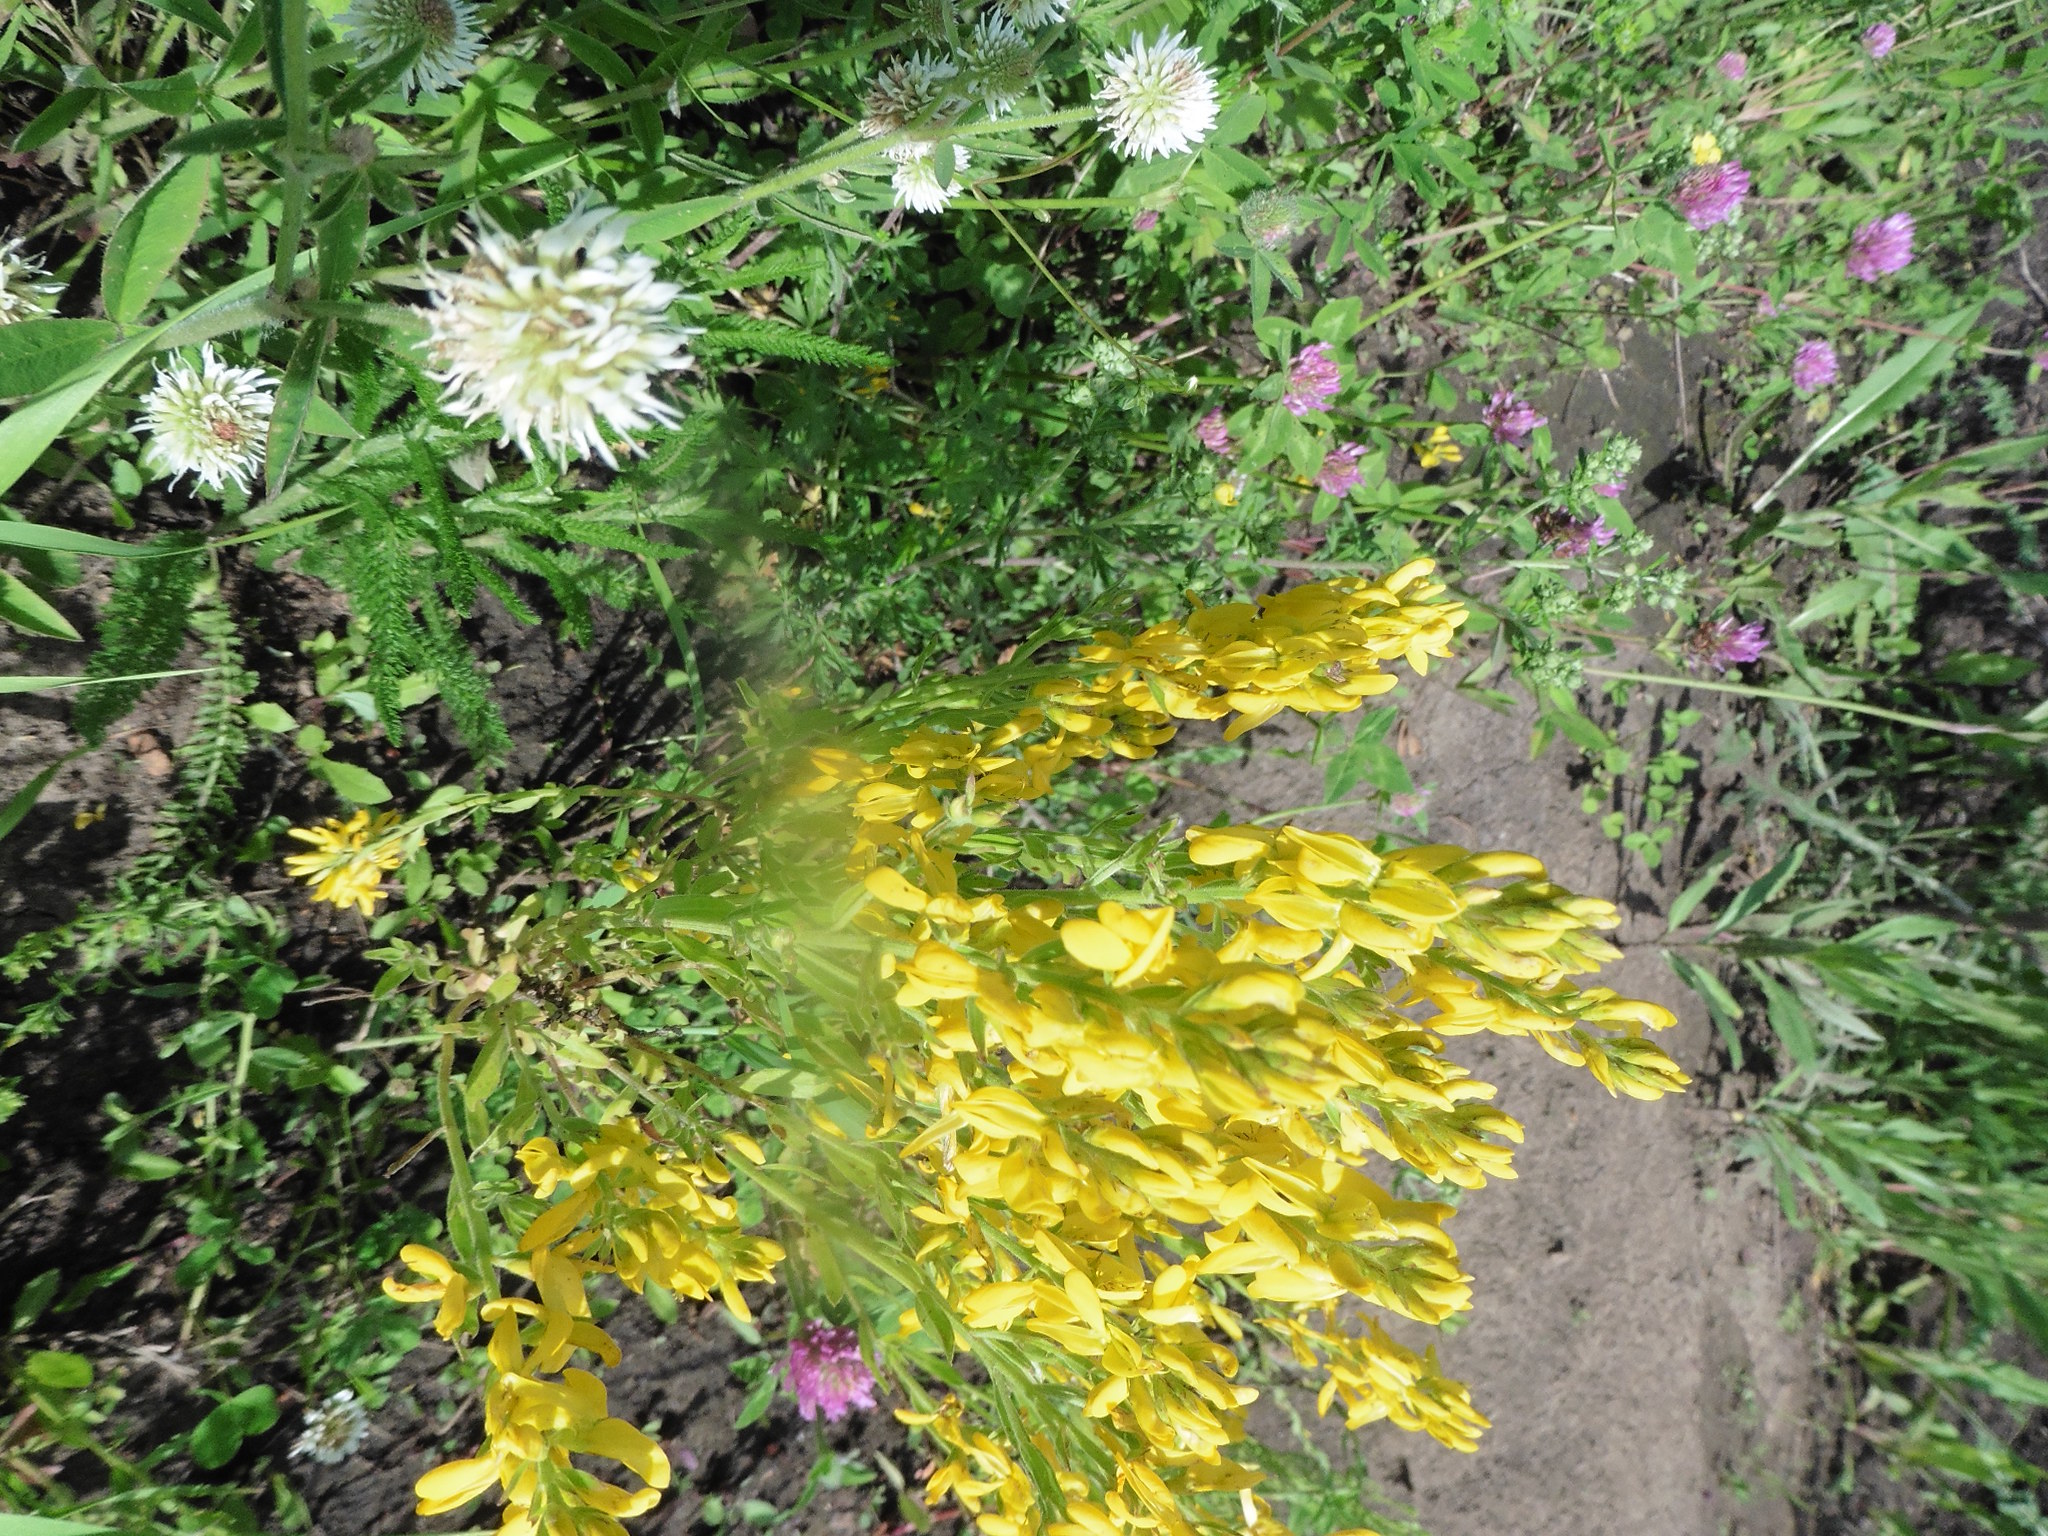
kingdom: Plantae
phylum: Tracheophyta
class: Magnoliopsida
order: Fabales
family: Fabaceae
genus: Genista
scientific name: Genista tinctoria
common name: Dyer's greenweed
